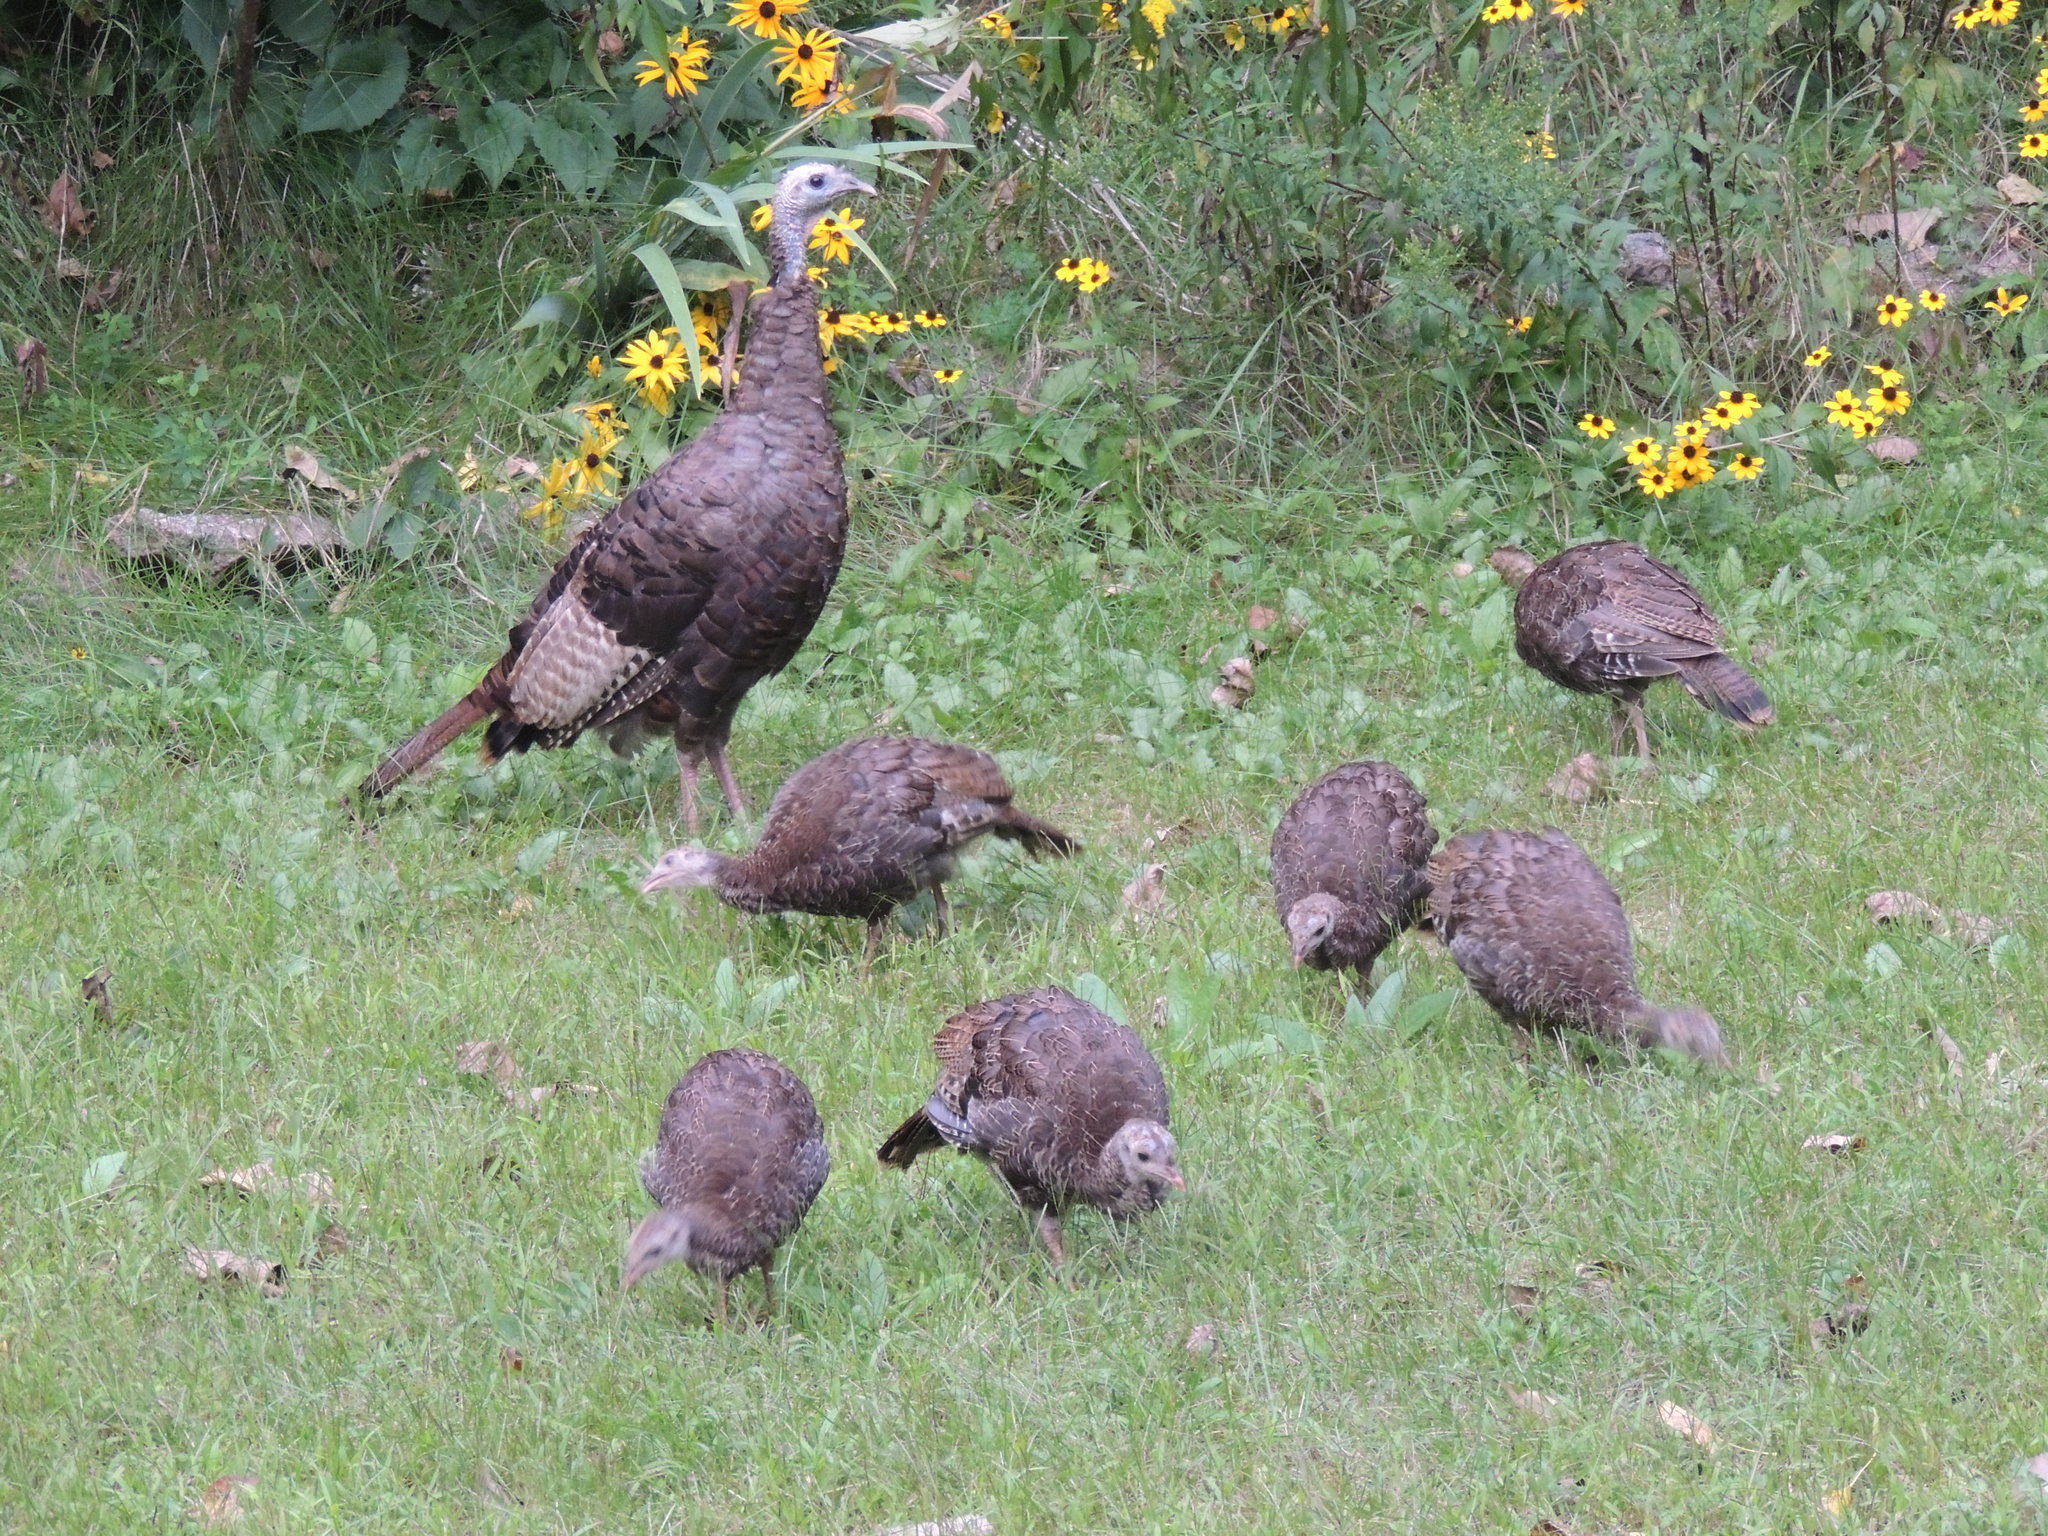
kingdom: Animalia
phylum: Chordata
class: Aves
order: Galliformes
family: Phasianidae
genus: Meleagris
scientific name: Meleagris gallopavo
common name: Wild turkey
